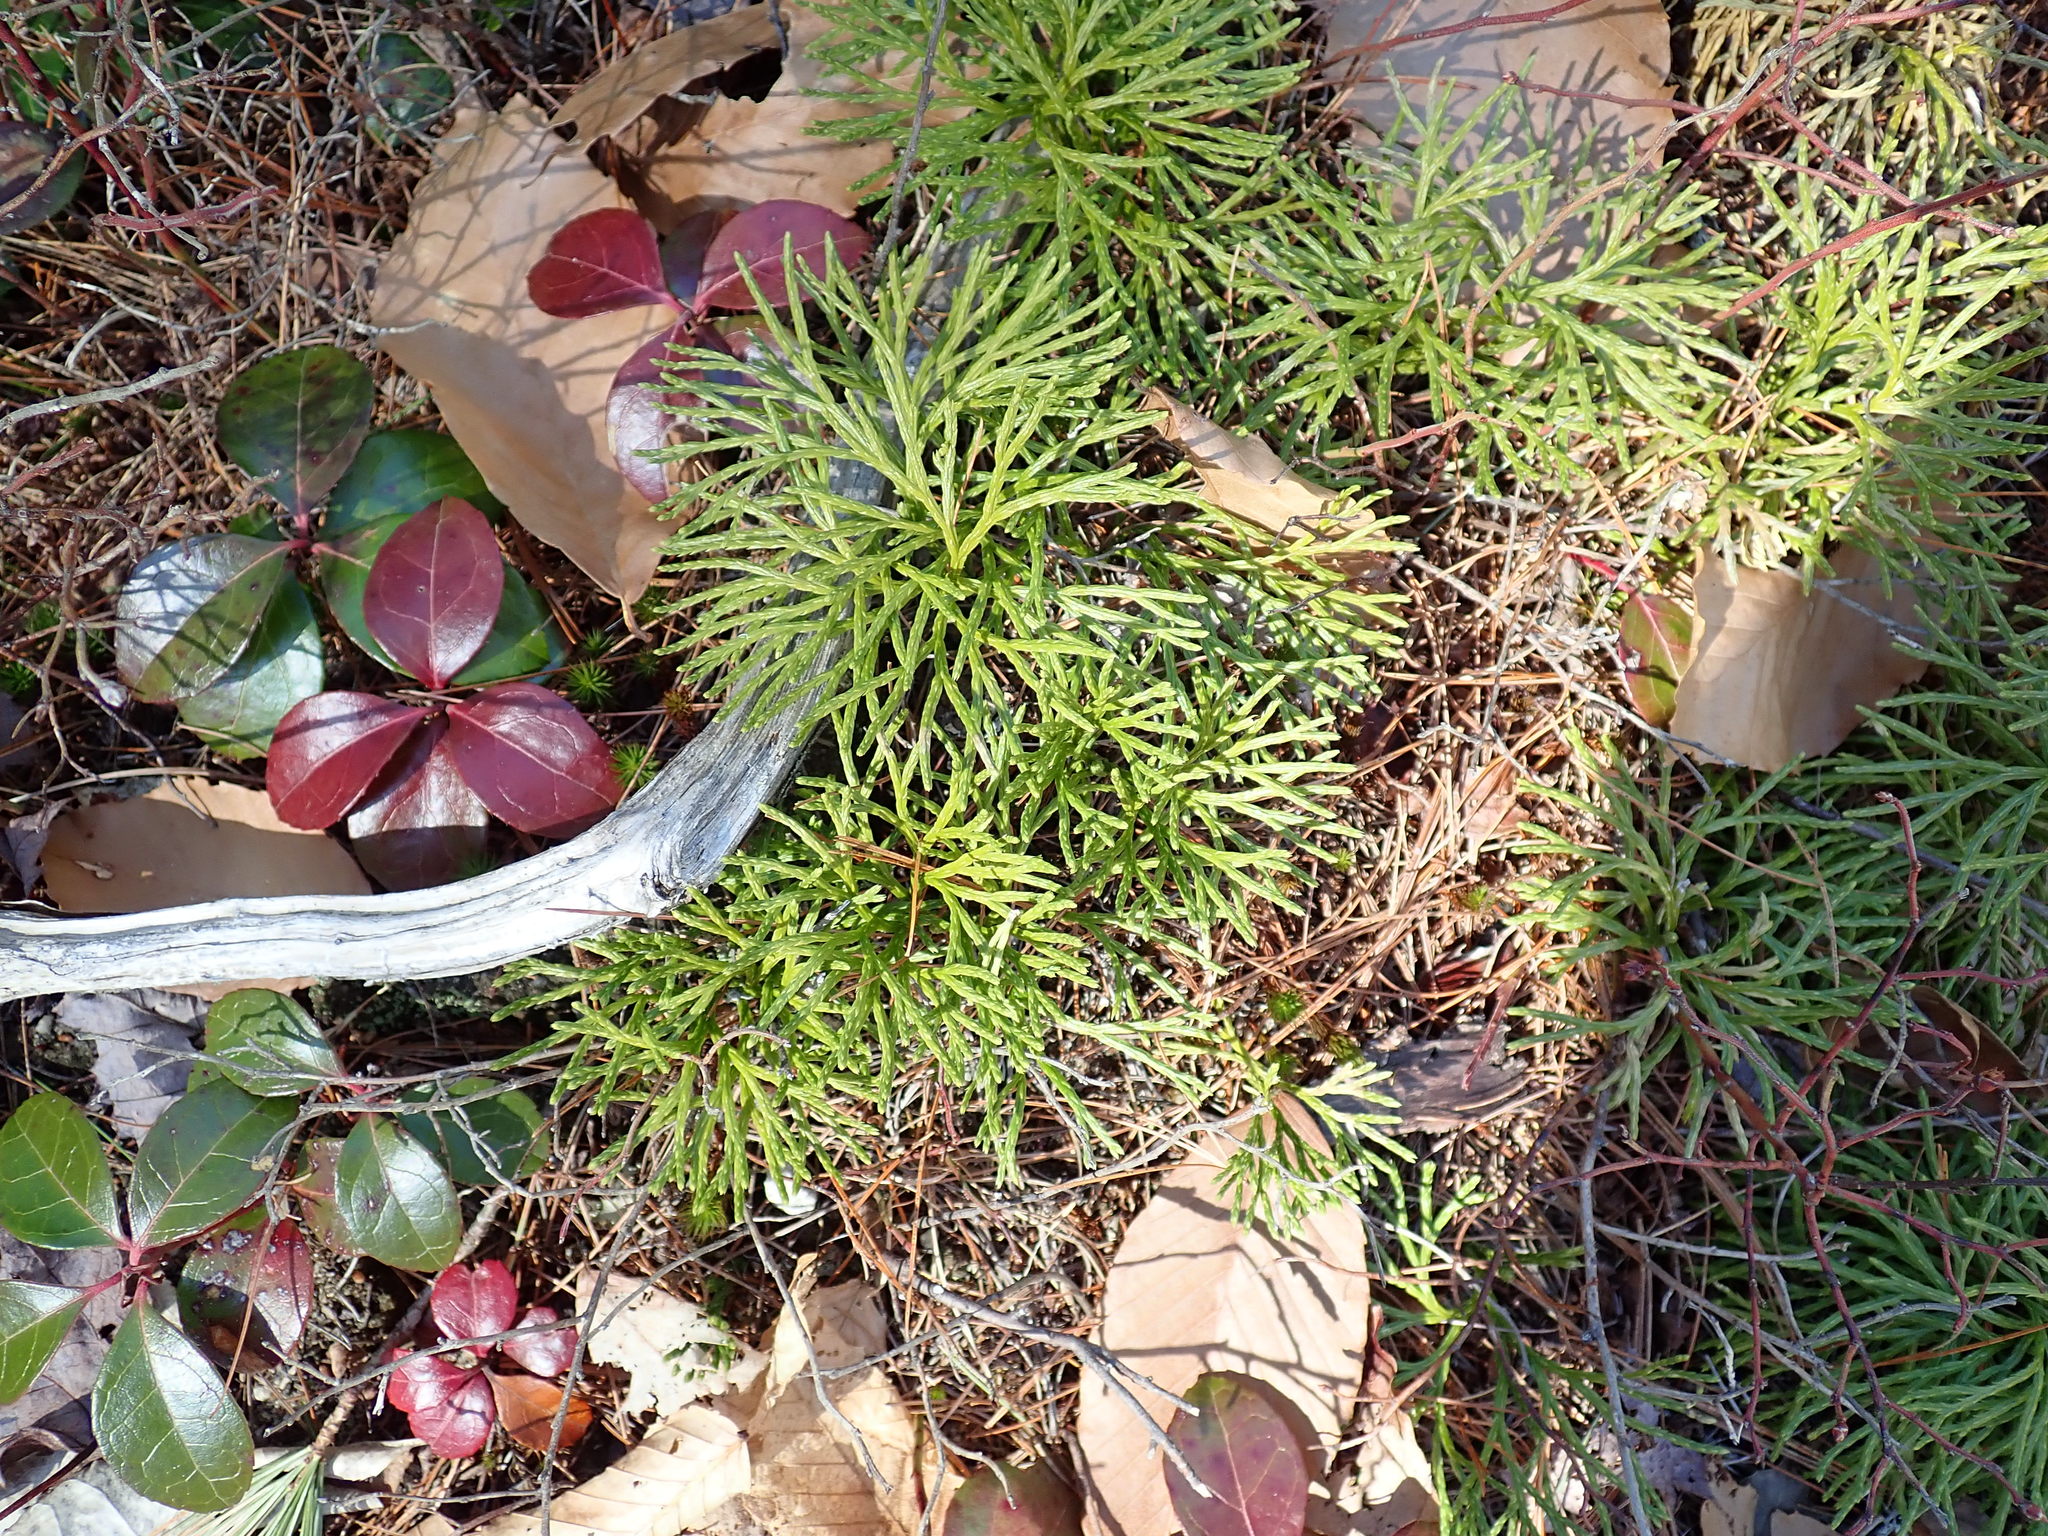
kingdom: Plantae
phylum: Tracheophyta
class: Lycopodiopsida
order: Lycopodiales
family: Lycopodiaceae
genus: Diphasiastrum
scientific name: Diphasiastrum tristachyum
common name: Blue ground-cedar
